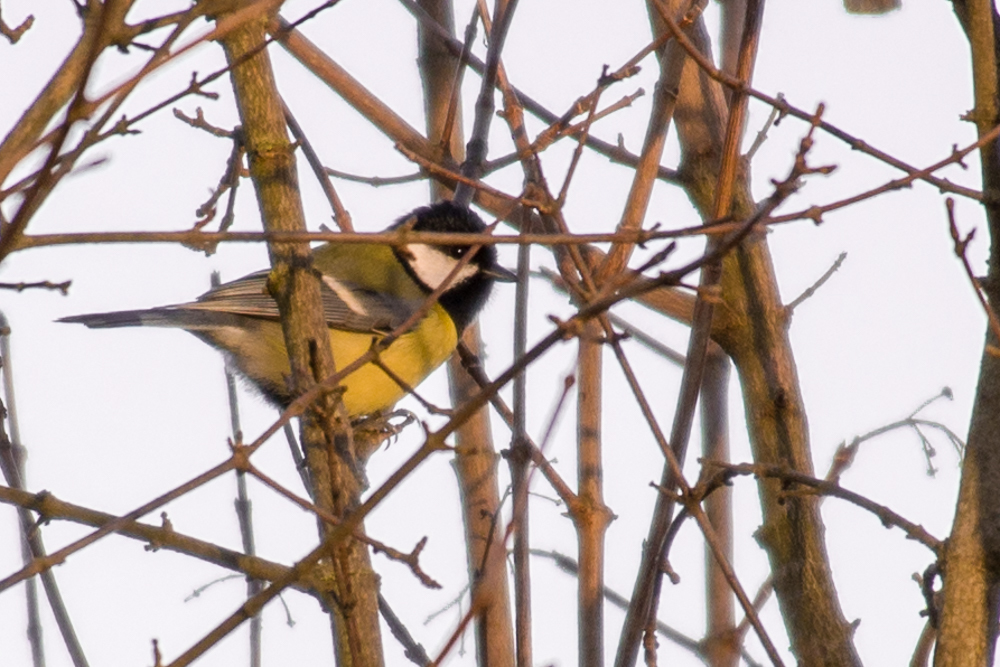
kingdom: Animalia
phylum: Chordata
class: Aves
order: Passeriformes
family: Paridae
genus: Parus
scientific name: Parus major
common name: Great tit
